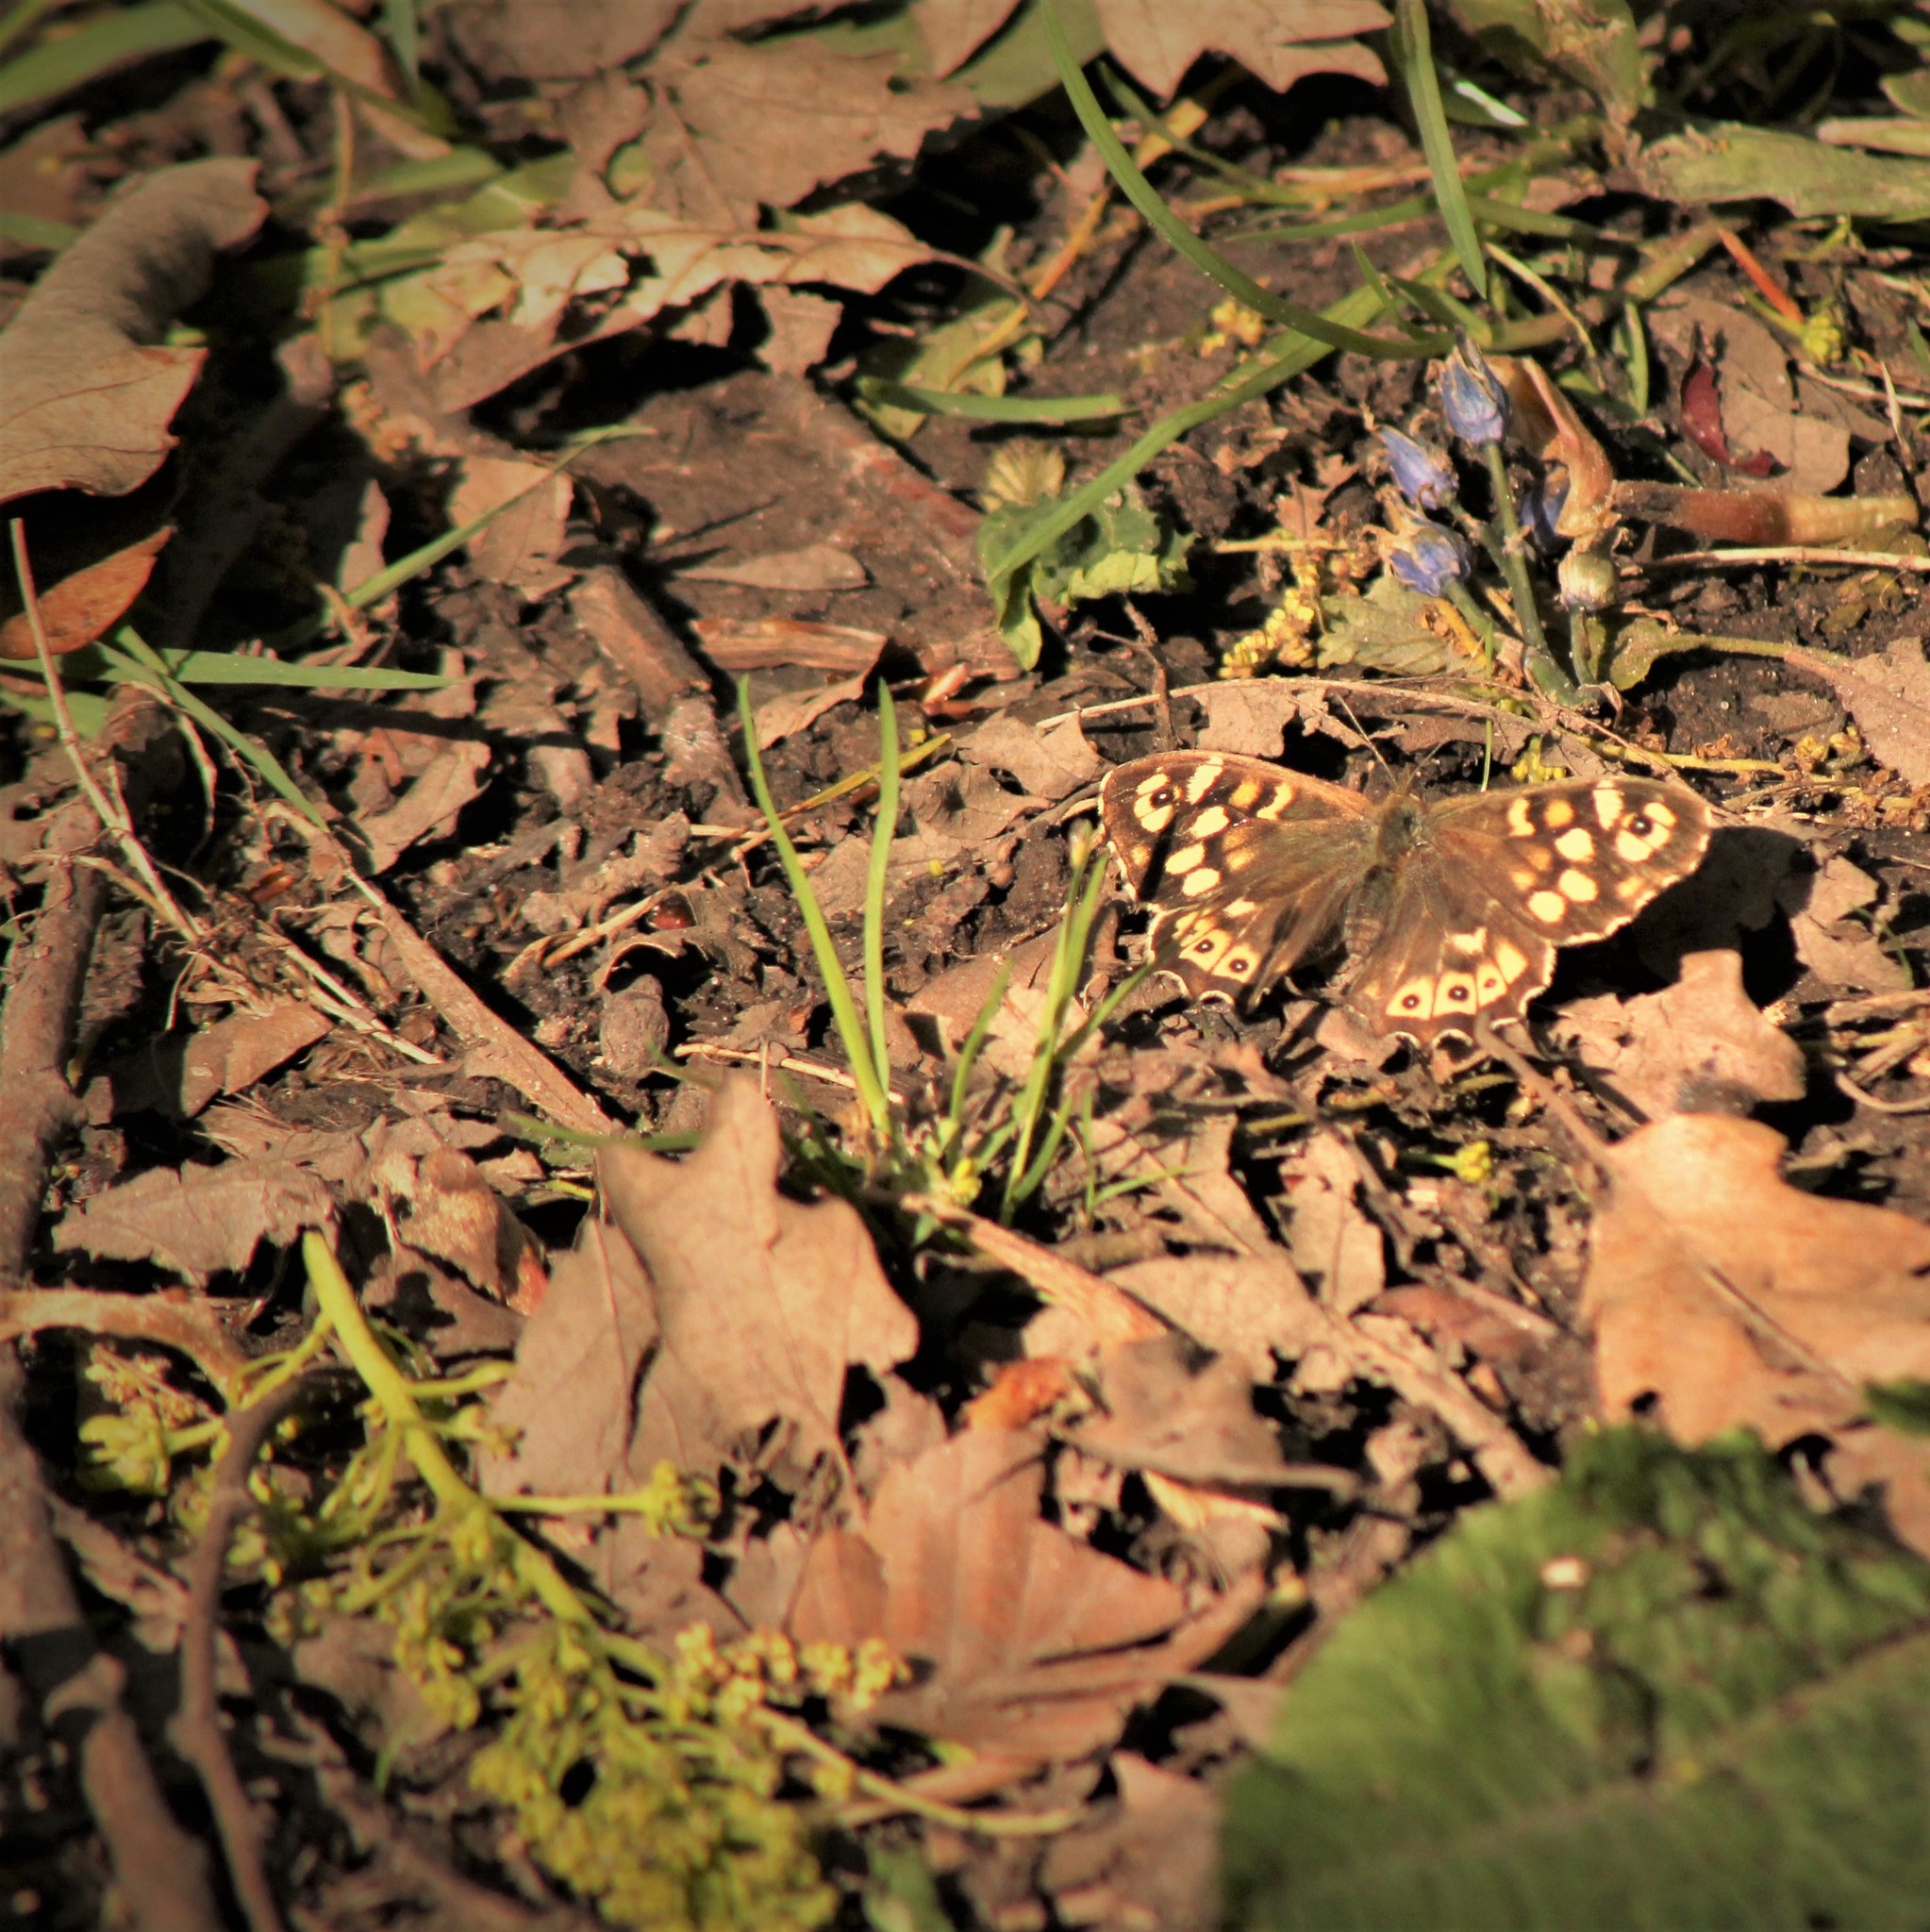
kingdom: Animalia
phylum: Arthropoda
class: Insecta
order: Lepidoptera
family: Nymphalidae
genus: Pararge
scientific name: Pararge aegeria
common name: Speckled wood
